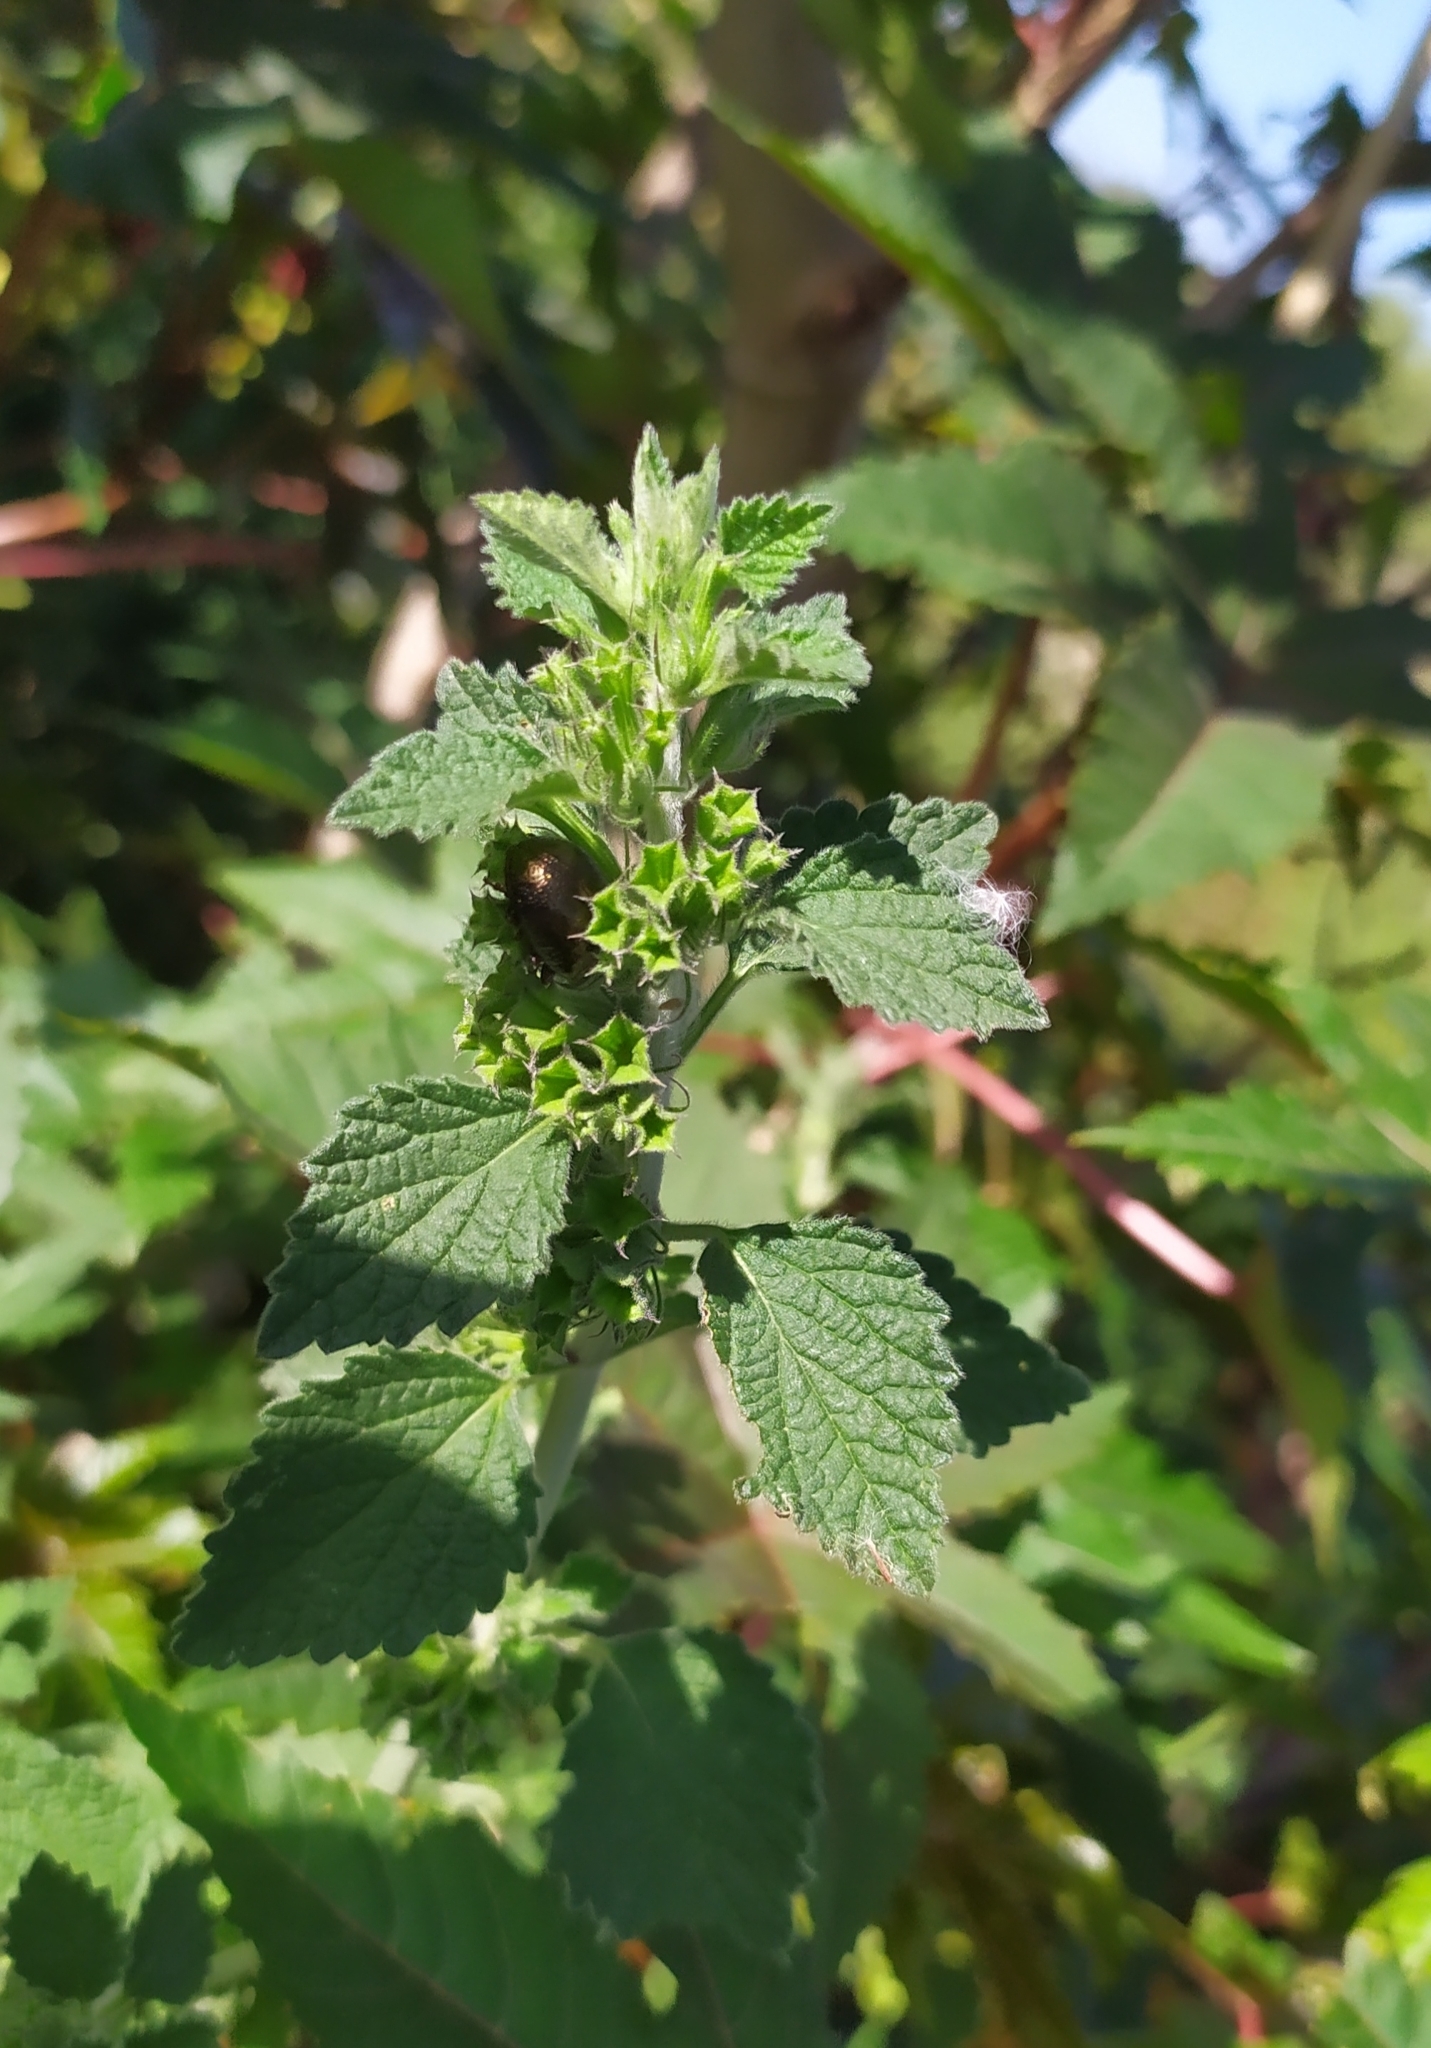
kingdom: Plantae
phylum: Tracheophyta
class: Magnoliopsida
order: Lamiales
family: Lamiaceae
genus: Ballota
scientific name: Ballota nigra
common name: Black horehound
